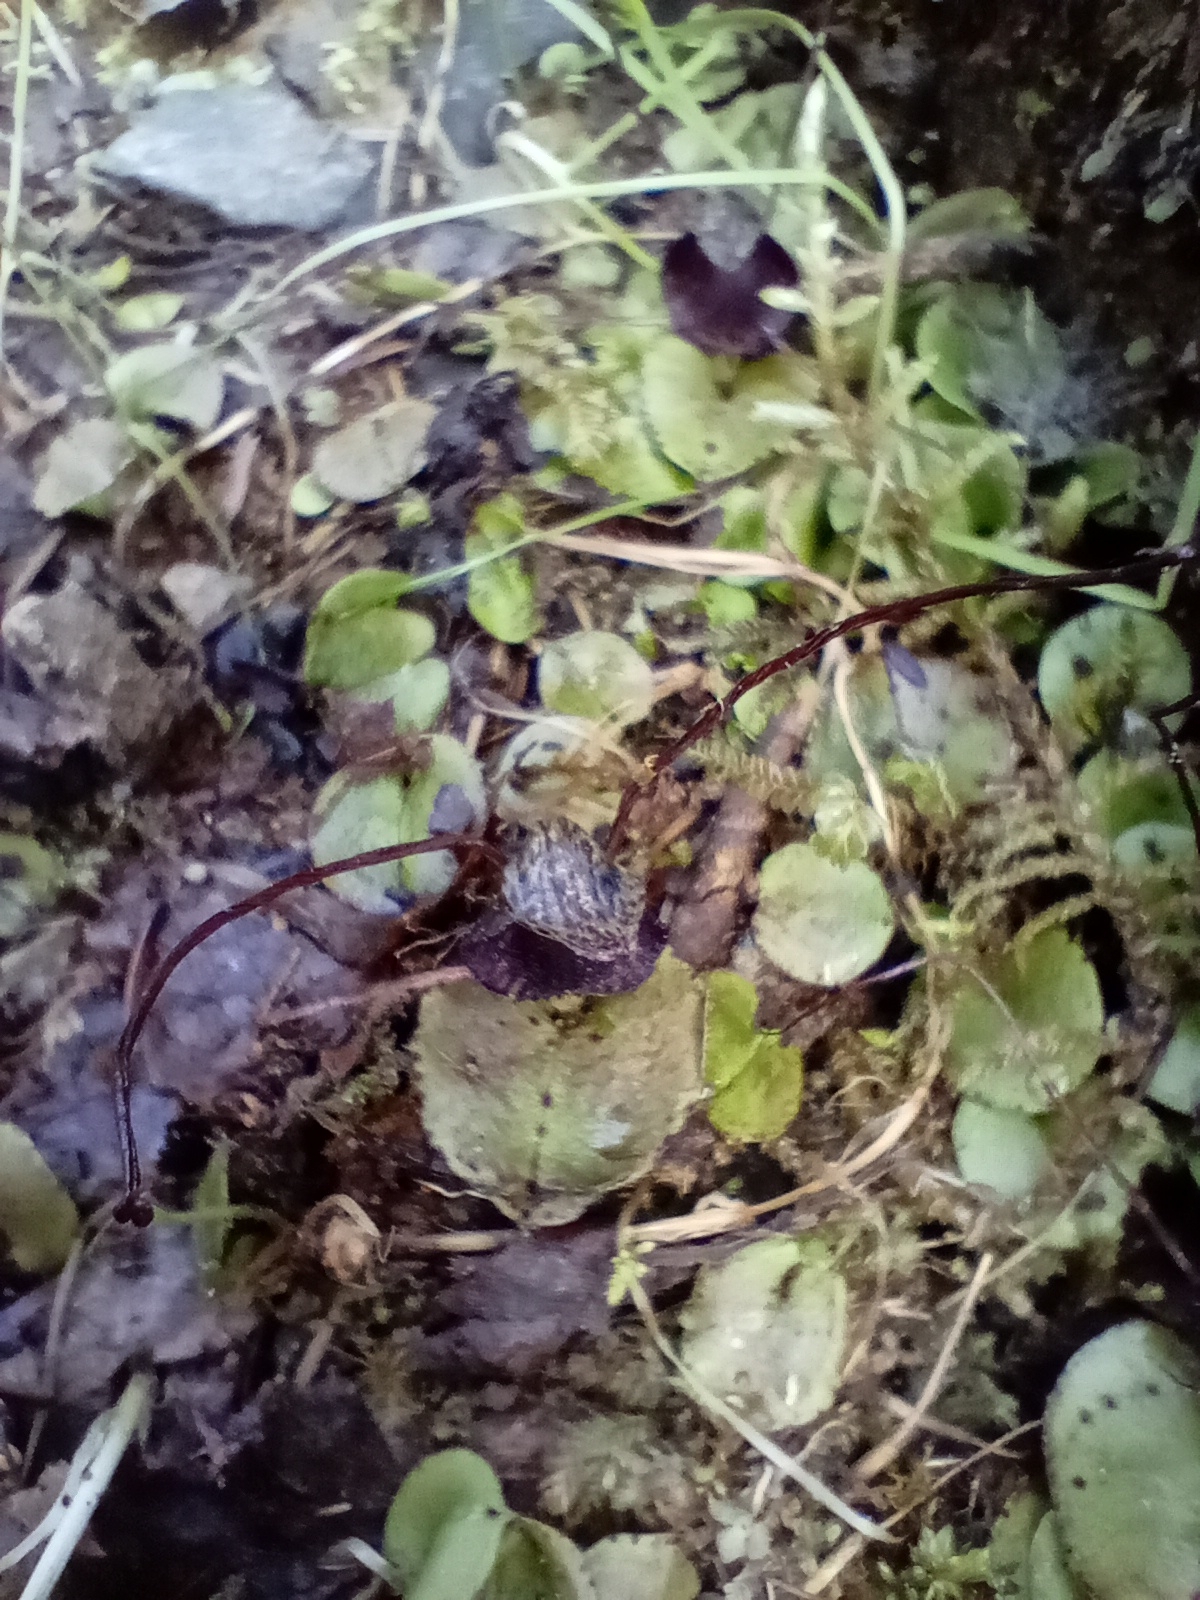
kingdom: Plantae
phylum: Tracheophyta
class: Liliopsida
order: Asparagales
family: Orchidaceae
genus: Corybas
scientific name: Corybas iridescens
